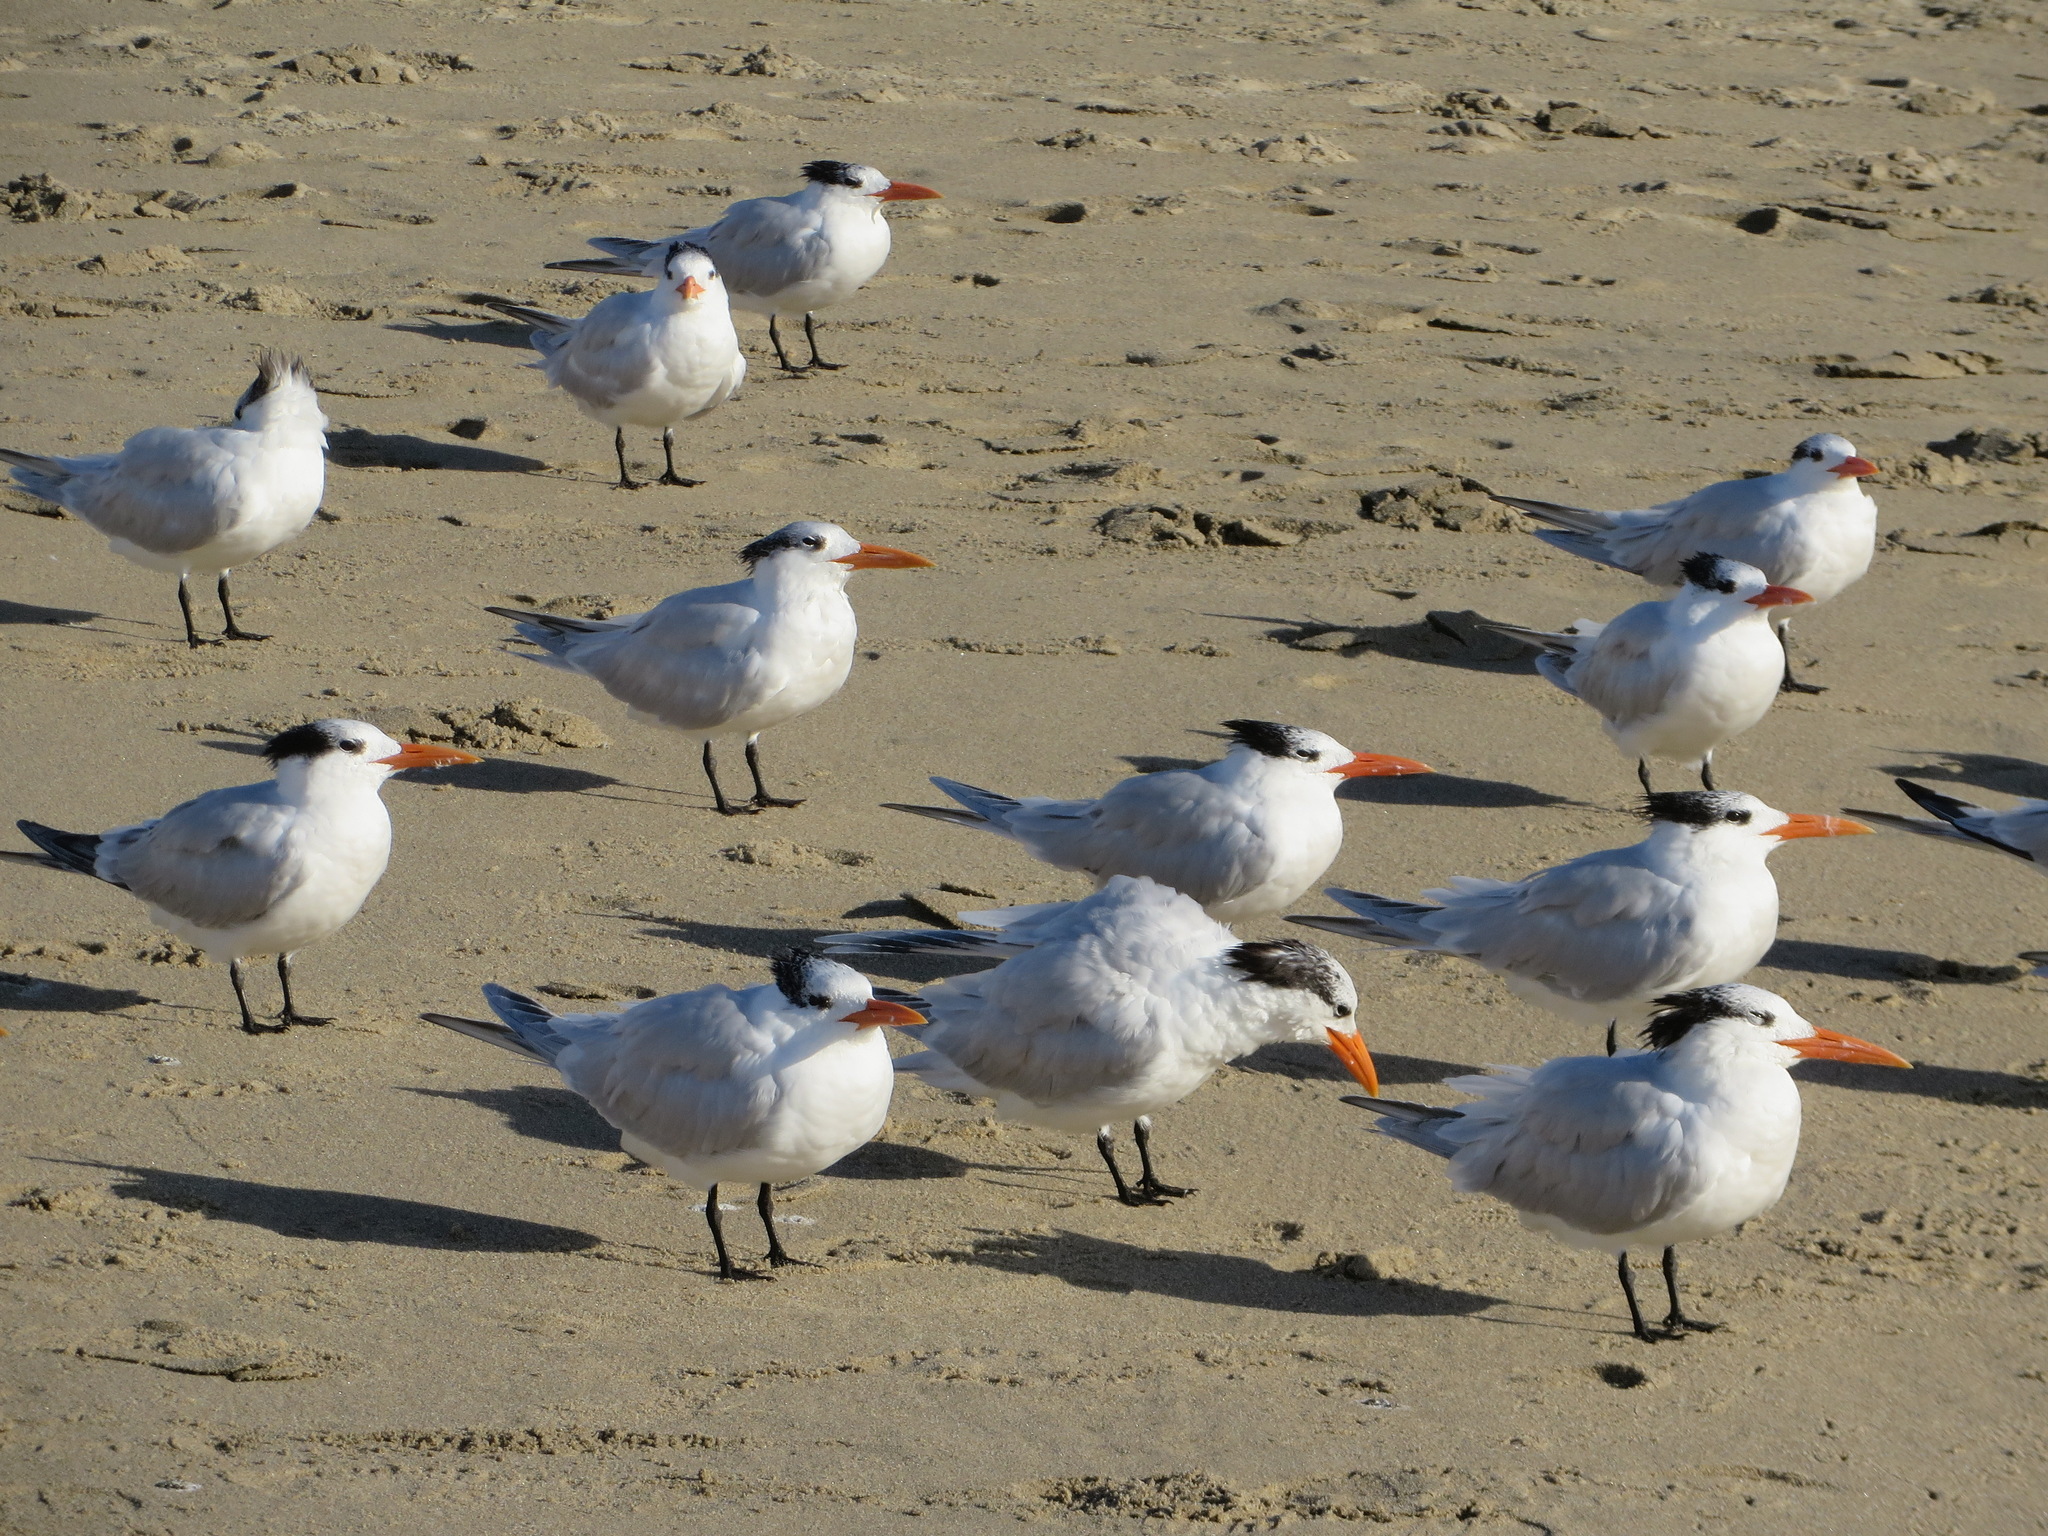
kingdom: Animalia
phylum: Chordata
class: Aves
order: Charadriiformes
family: Laridae
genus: Thalasseus
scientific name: Thalasseus maximus
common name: Royal tern
